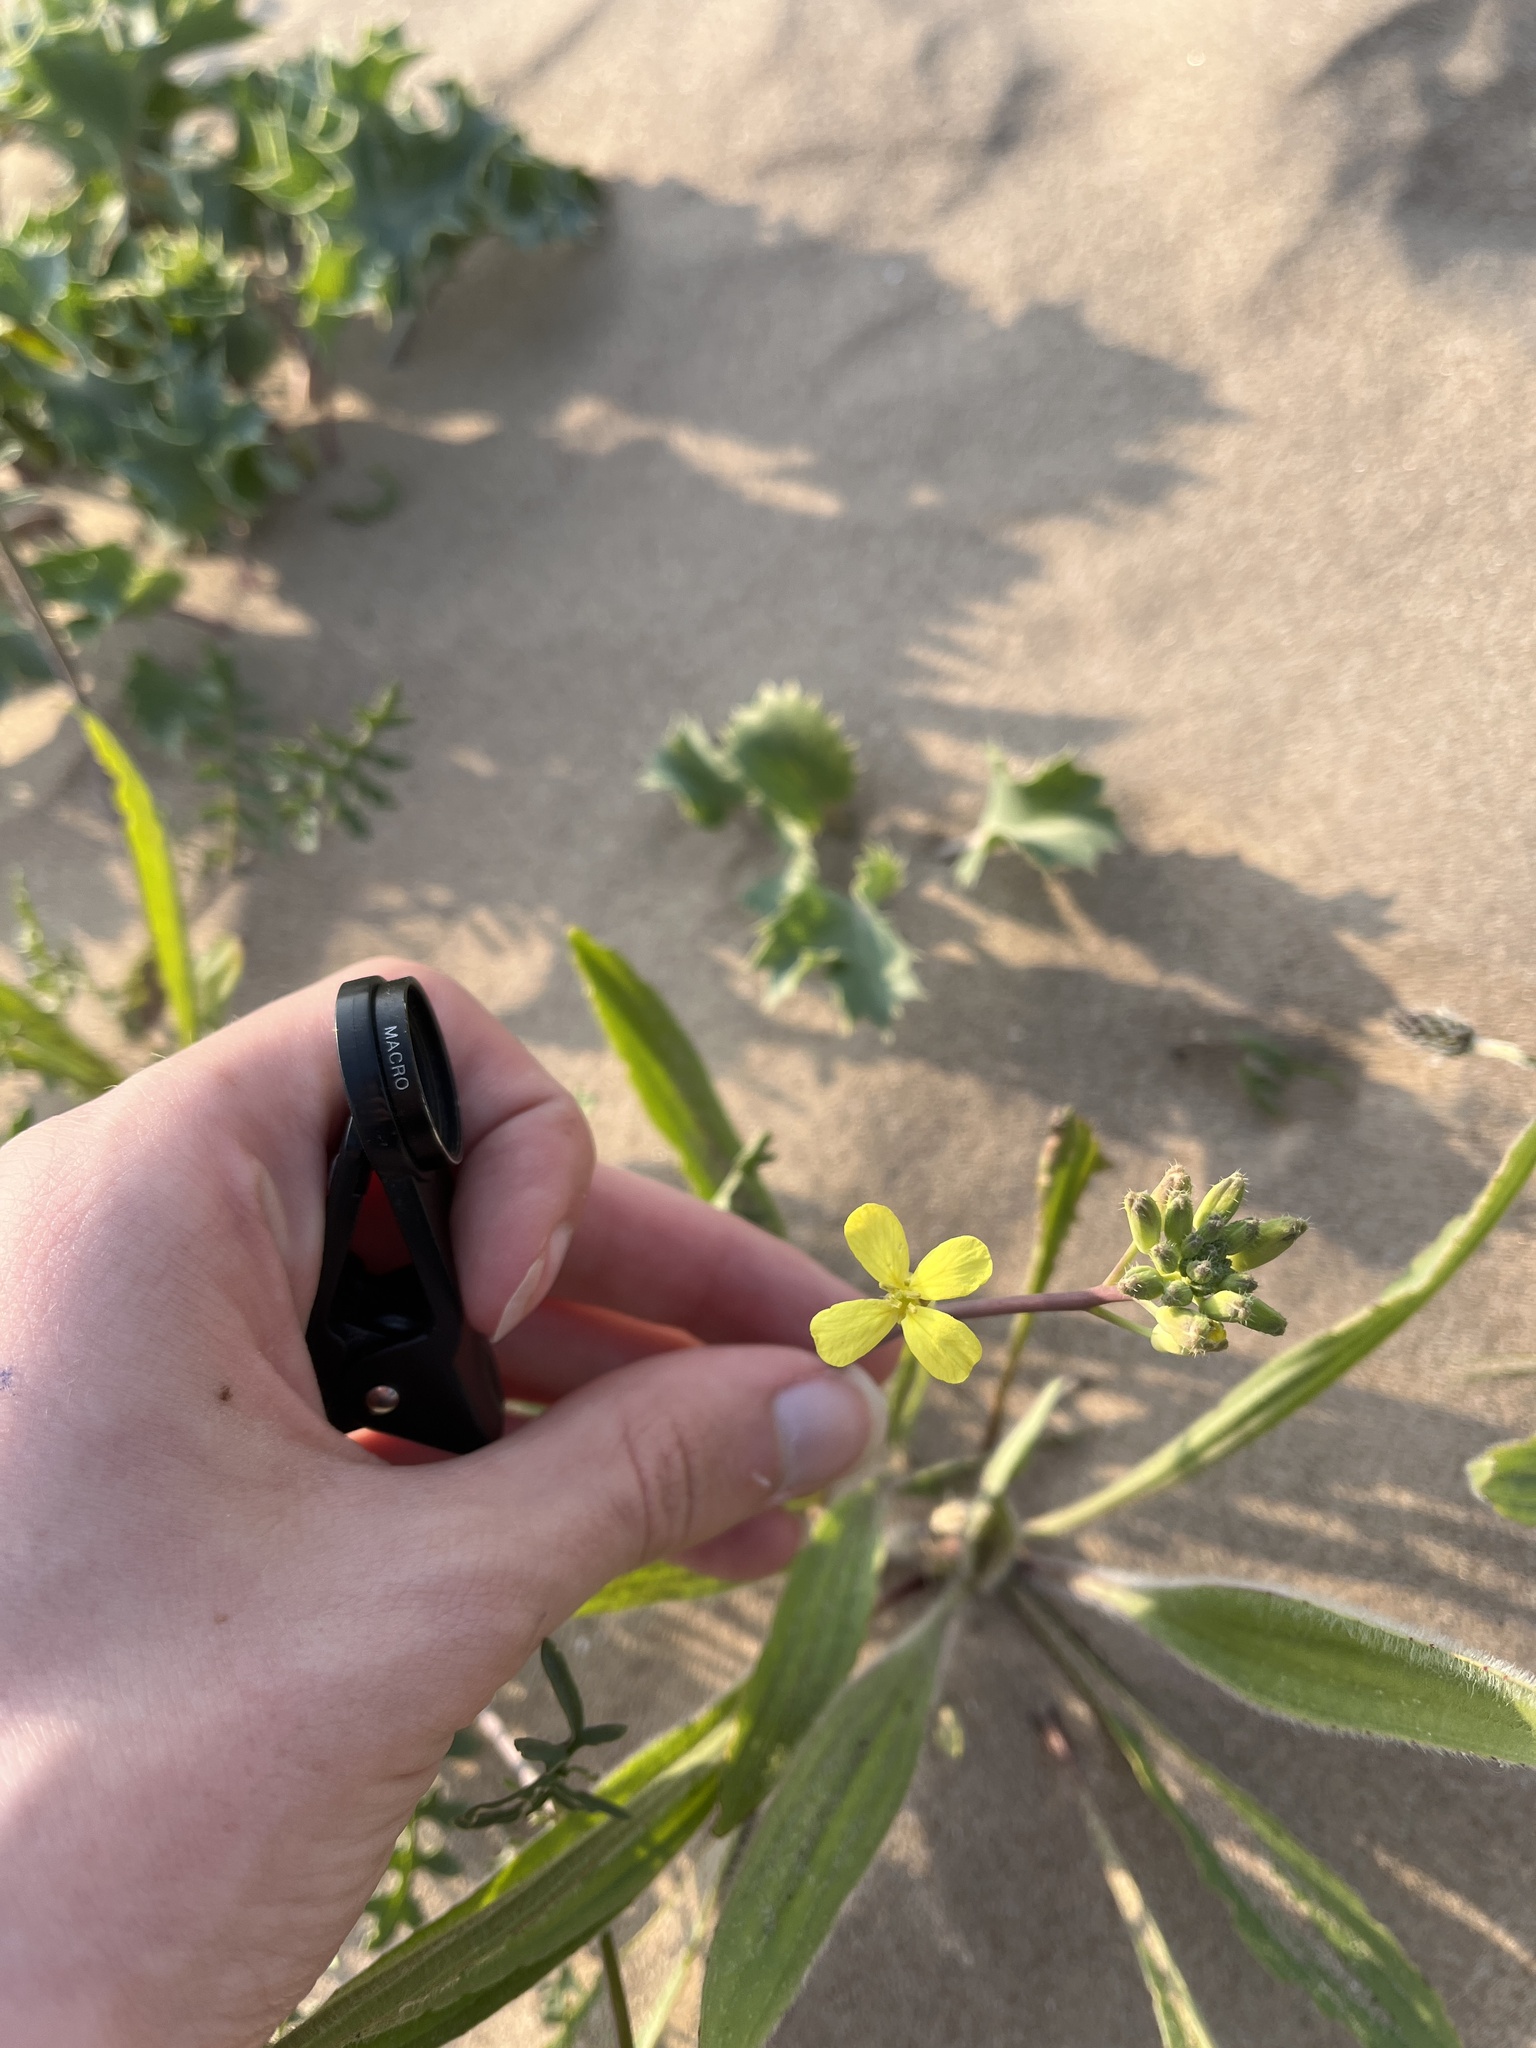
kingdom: Plantae
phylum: Tracheophyta
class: Magnoliopsida
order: Brassicales
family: Brassicaceae
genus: Coincya
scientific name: Coincya monensis
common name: Star-mustard
